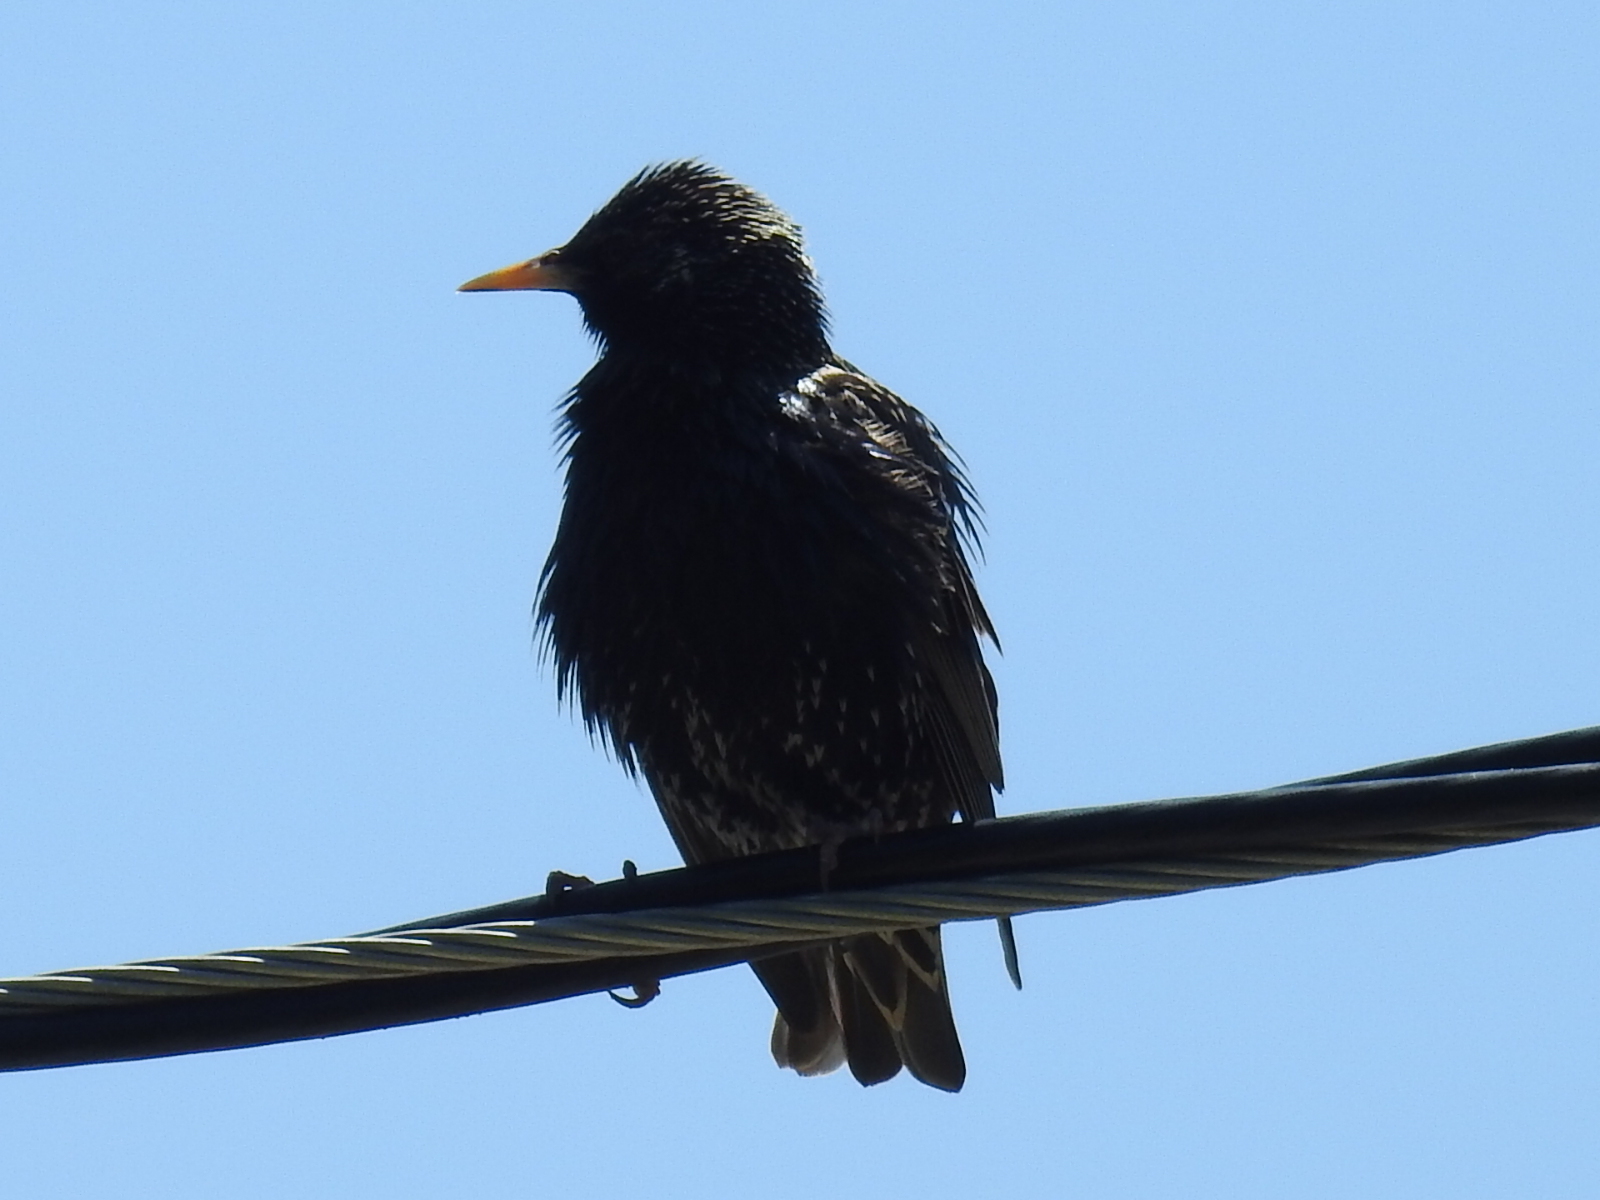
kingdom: Animalia
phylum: Chordata
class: Aves
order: Passeriformes
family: Sturnidae
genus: Sturnus
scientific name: Sturnus vulgaris
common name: Common starling
